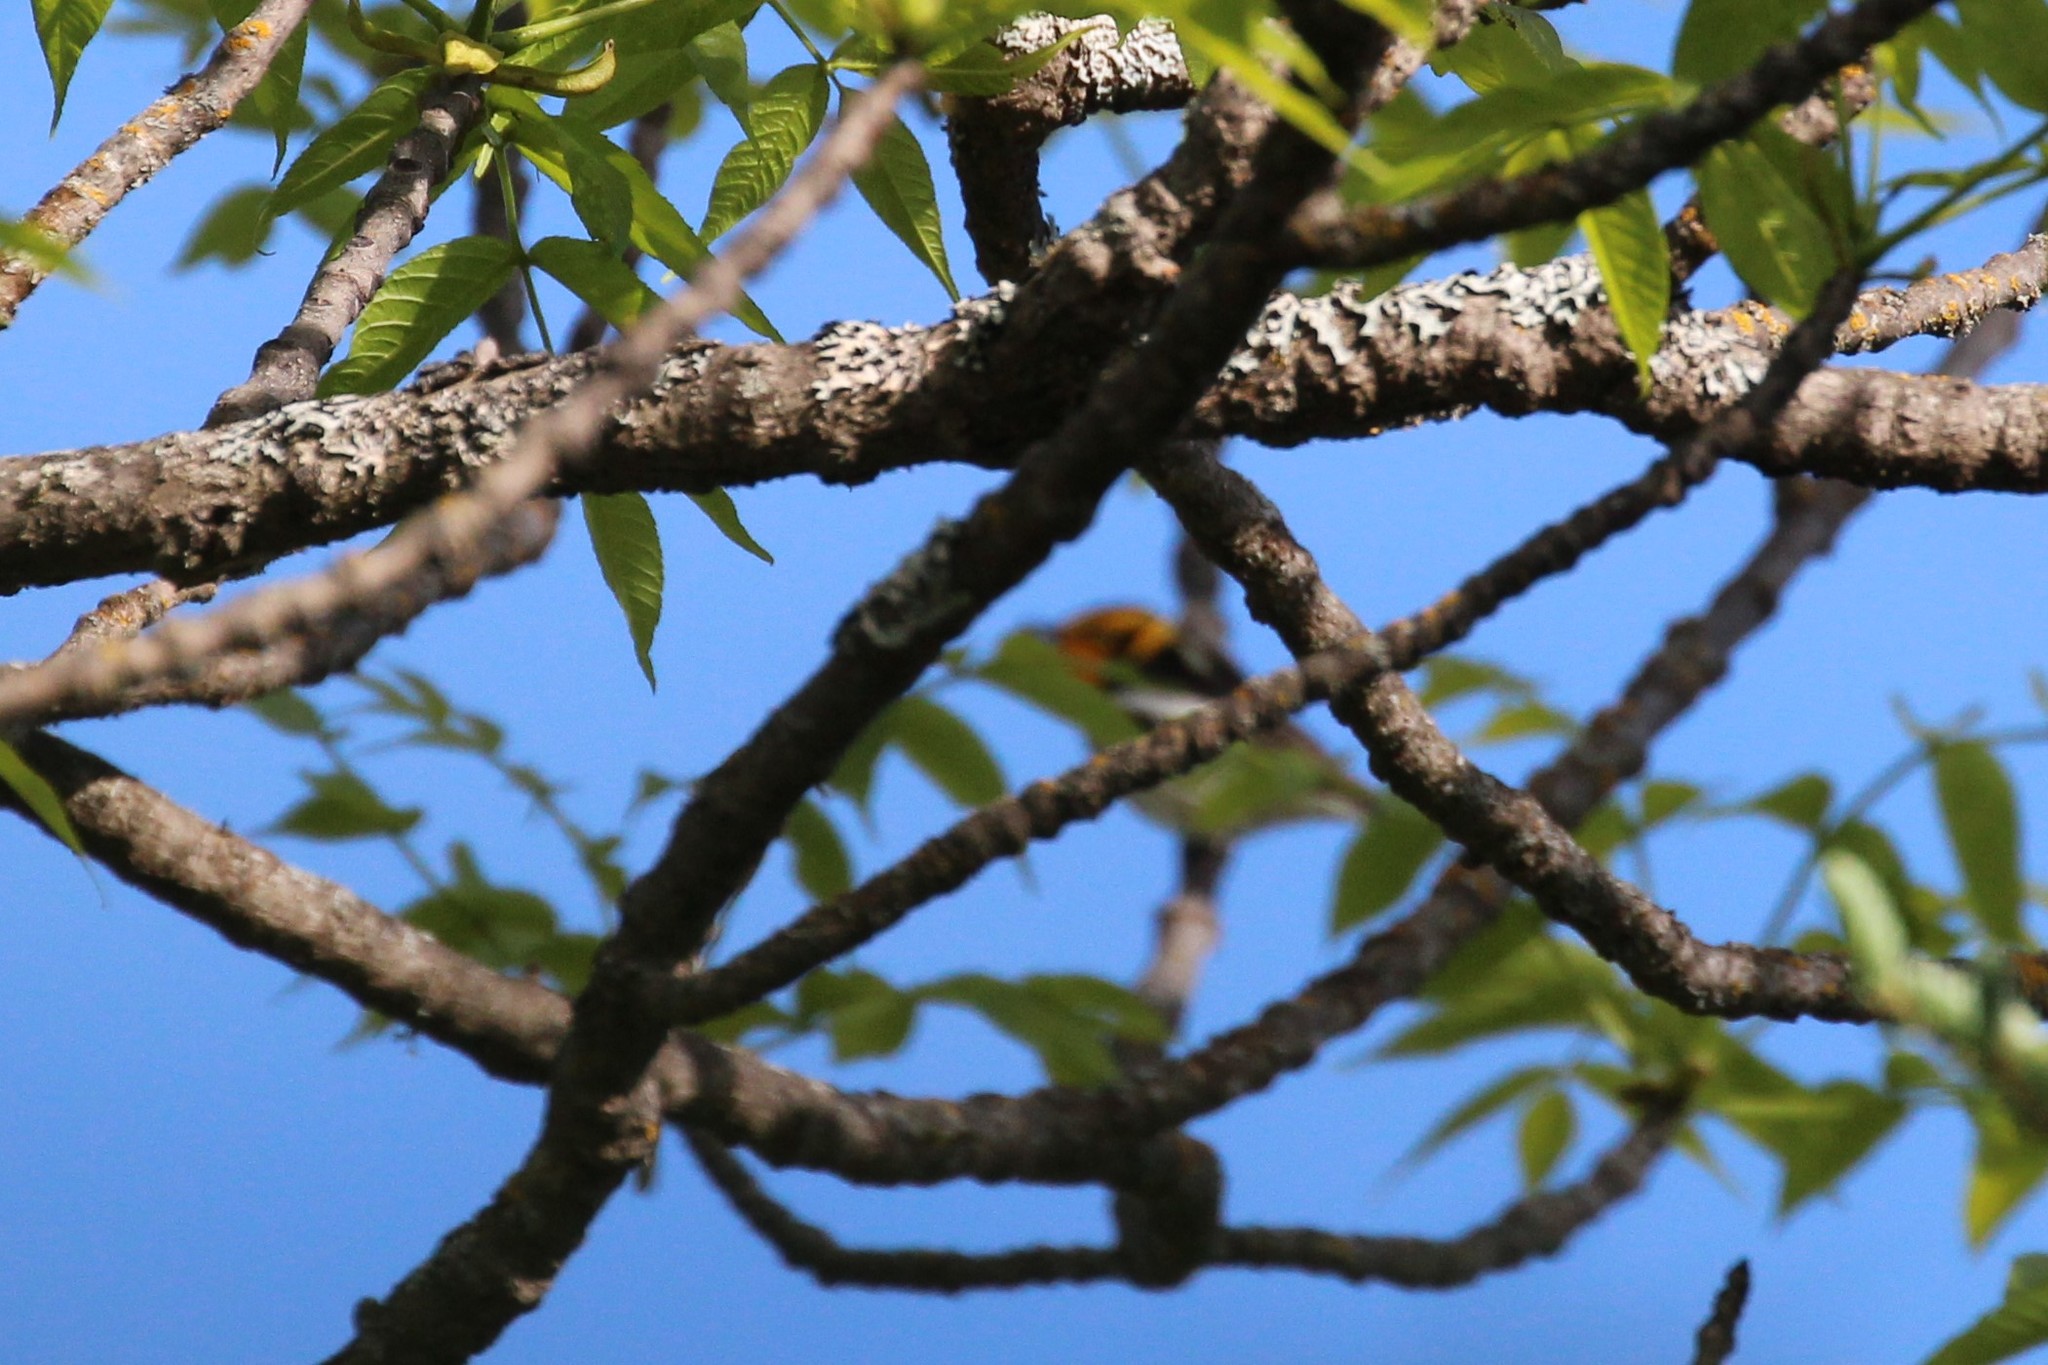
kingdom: Animalia
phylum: Chordata
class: Aves
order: Passeriformes
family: Parulidae
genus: Setophaga
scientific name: Setophaga fusca
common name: Blackburnian warbler
